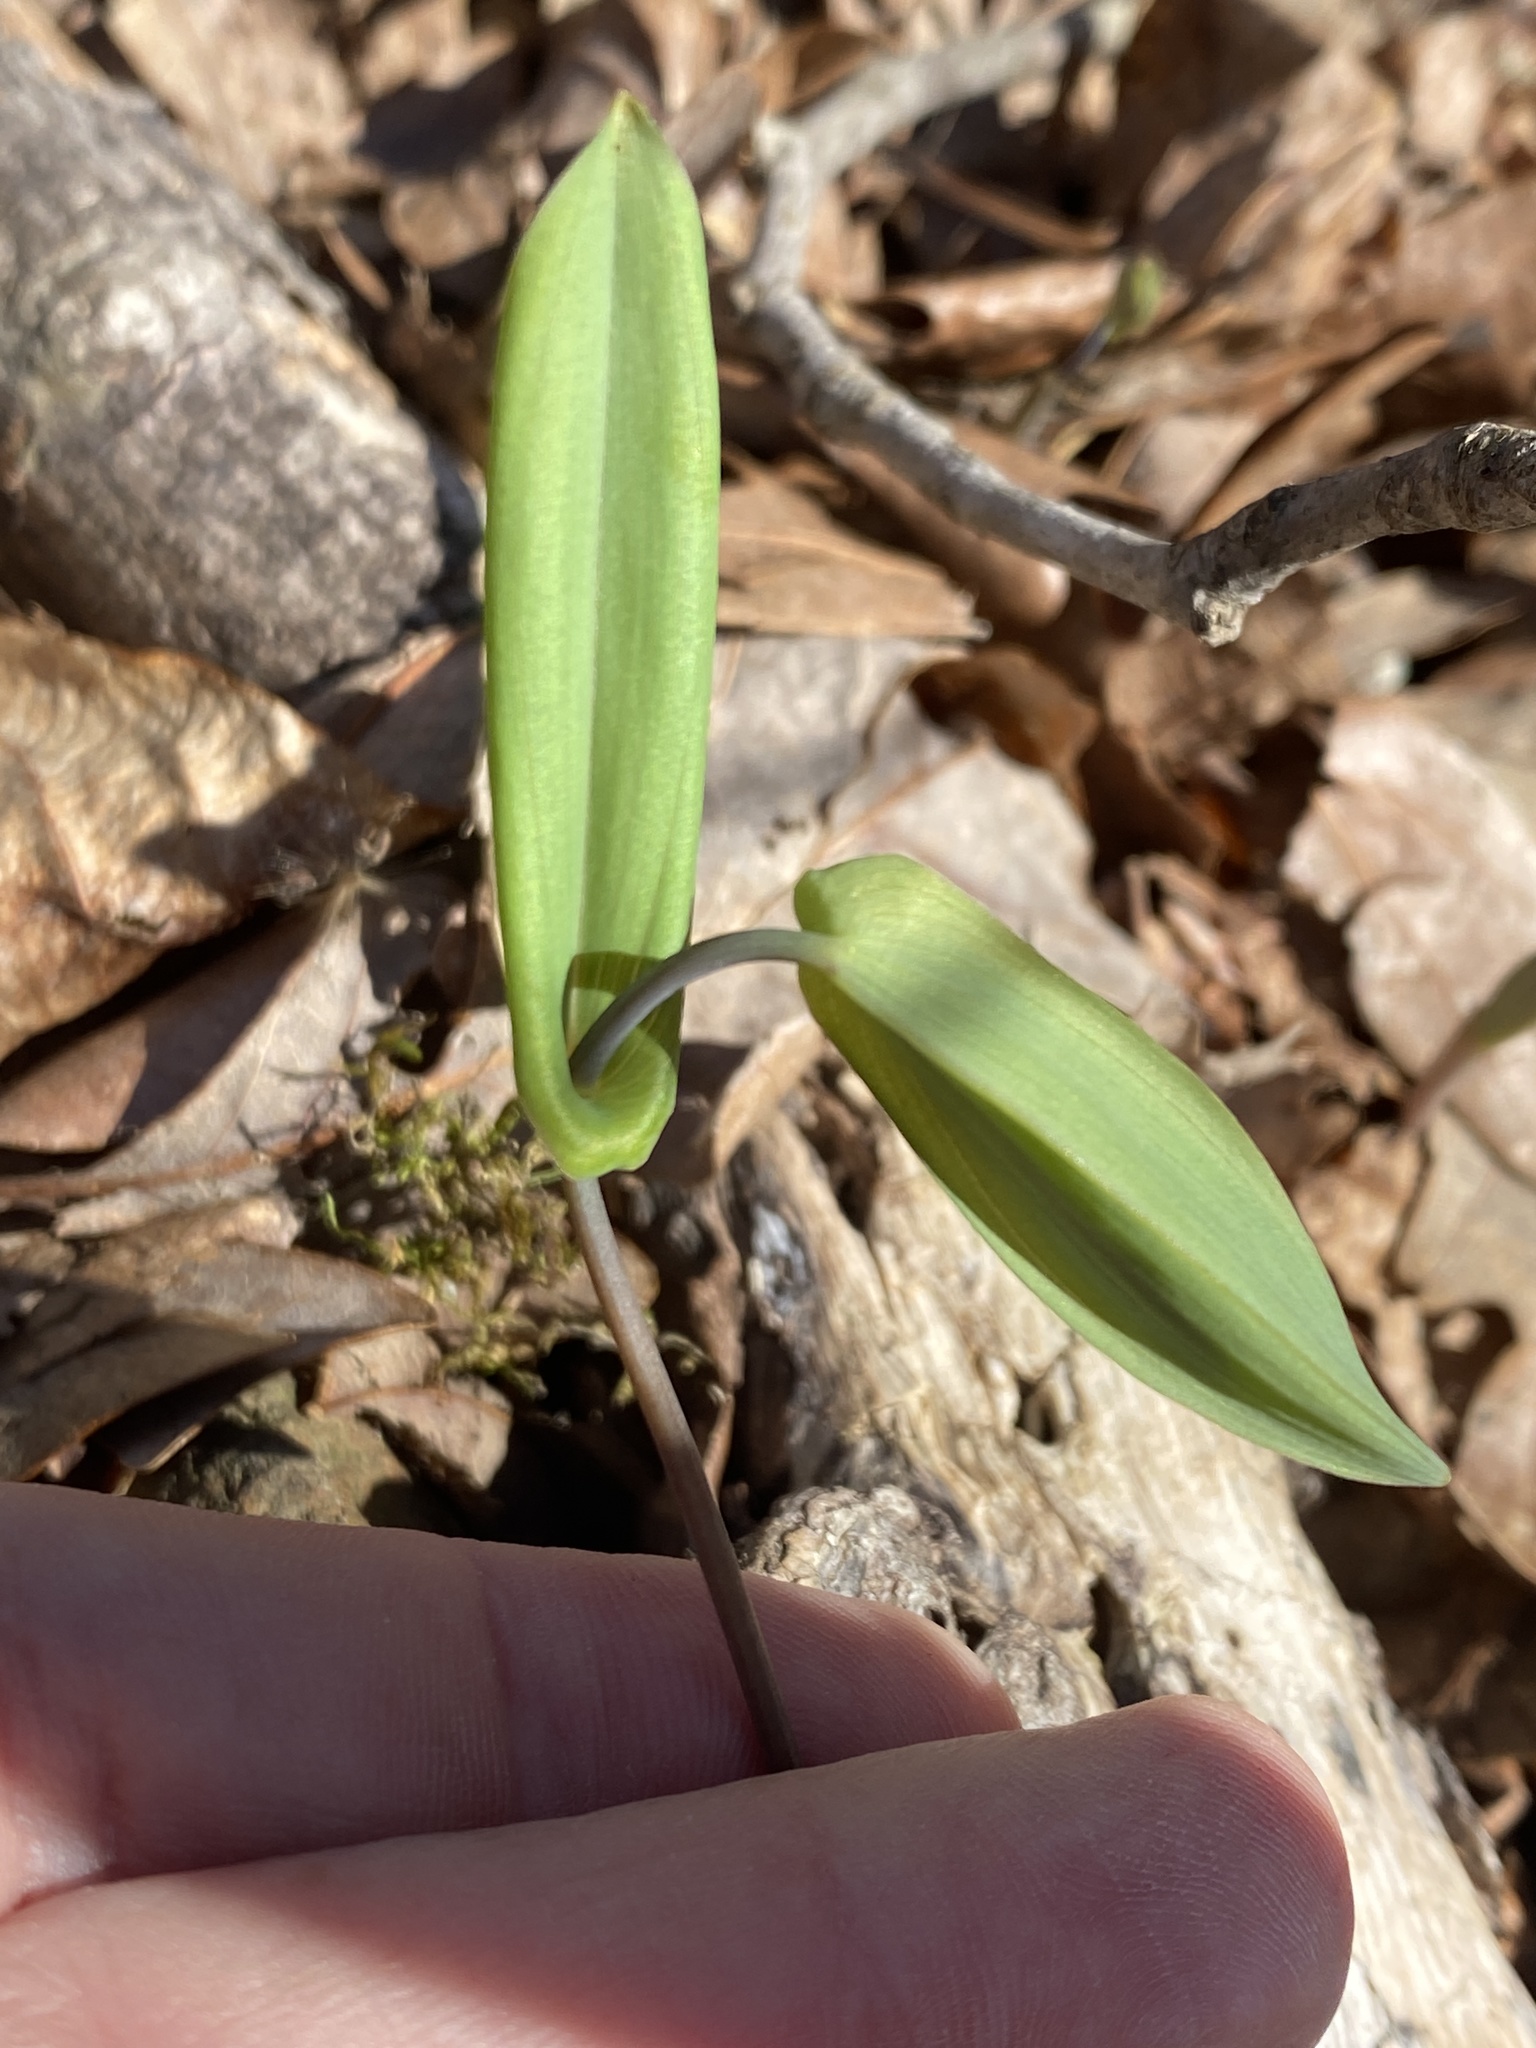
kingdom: Plantae
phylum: Tracheophyta
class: Liliopsida
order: Liliales
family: Colchicaceae
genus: Uvularia
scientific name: Uvularia perfoliata
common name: Perfoliate bellwort
